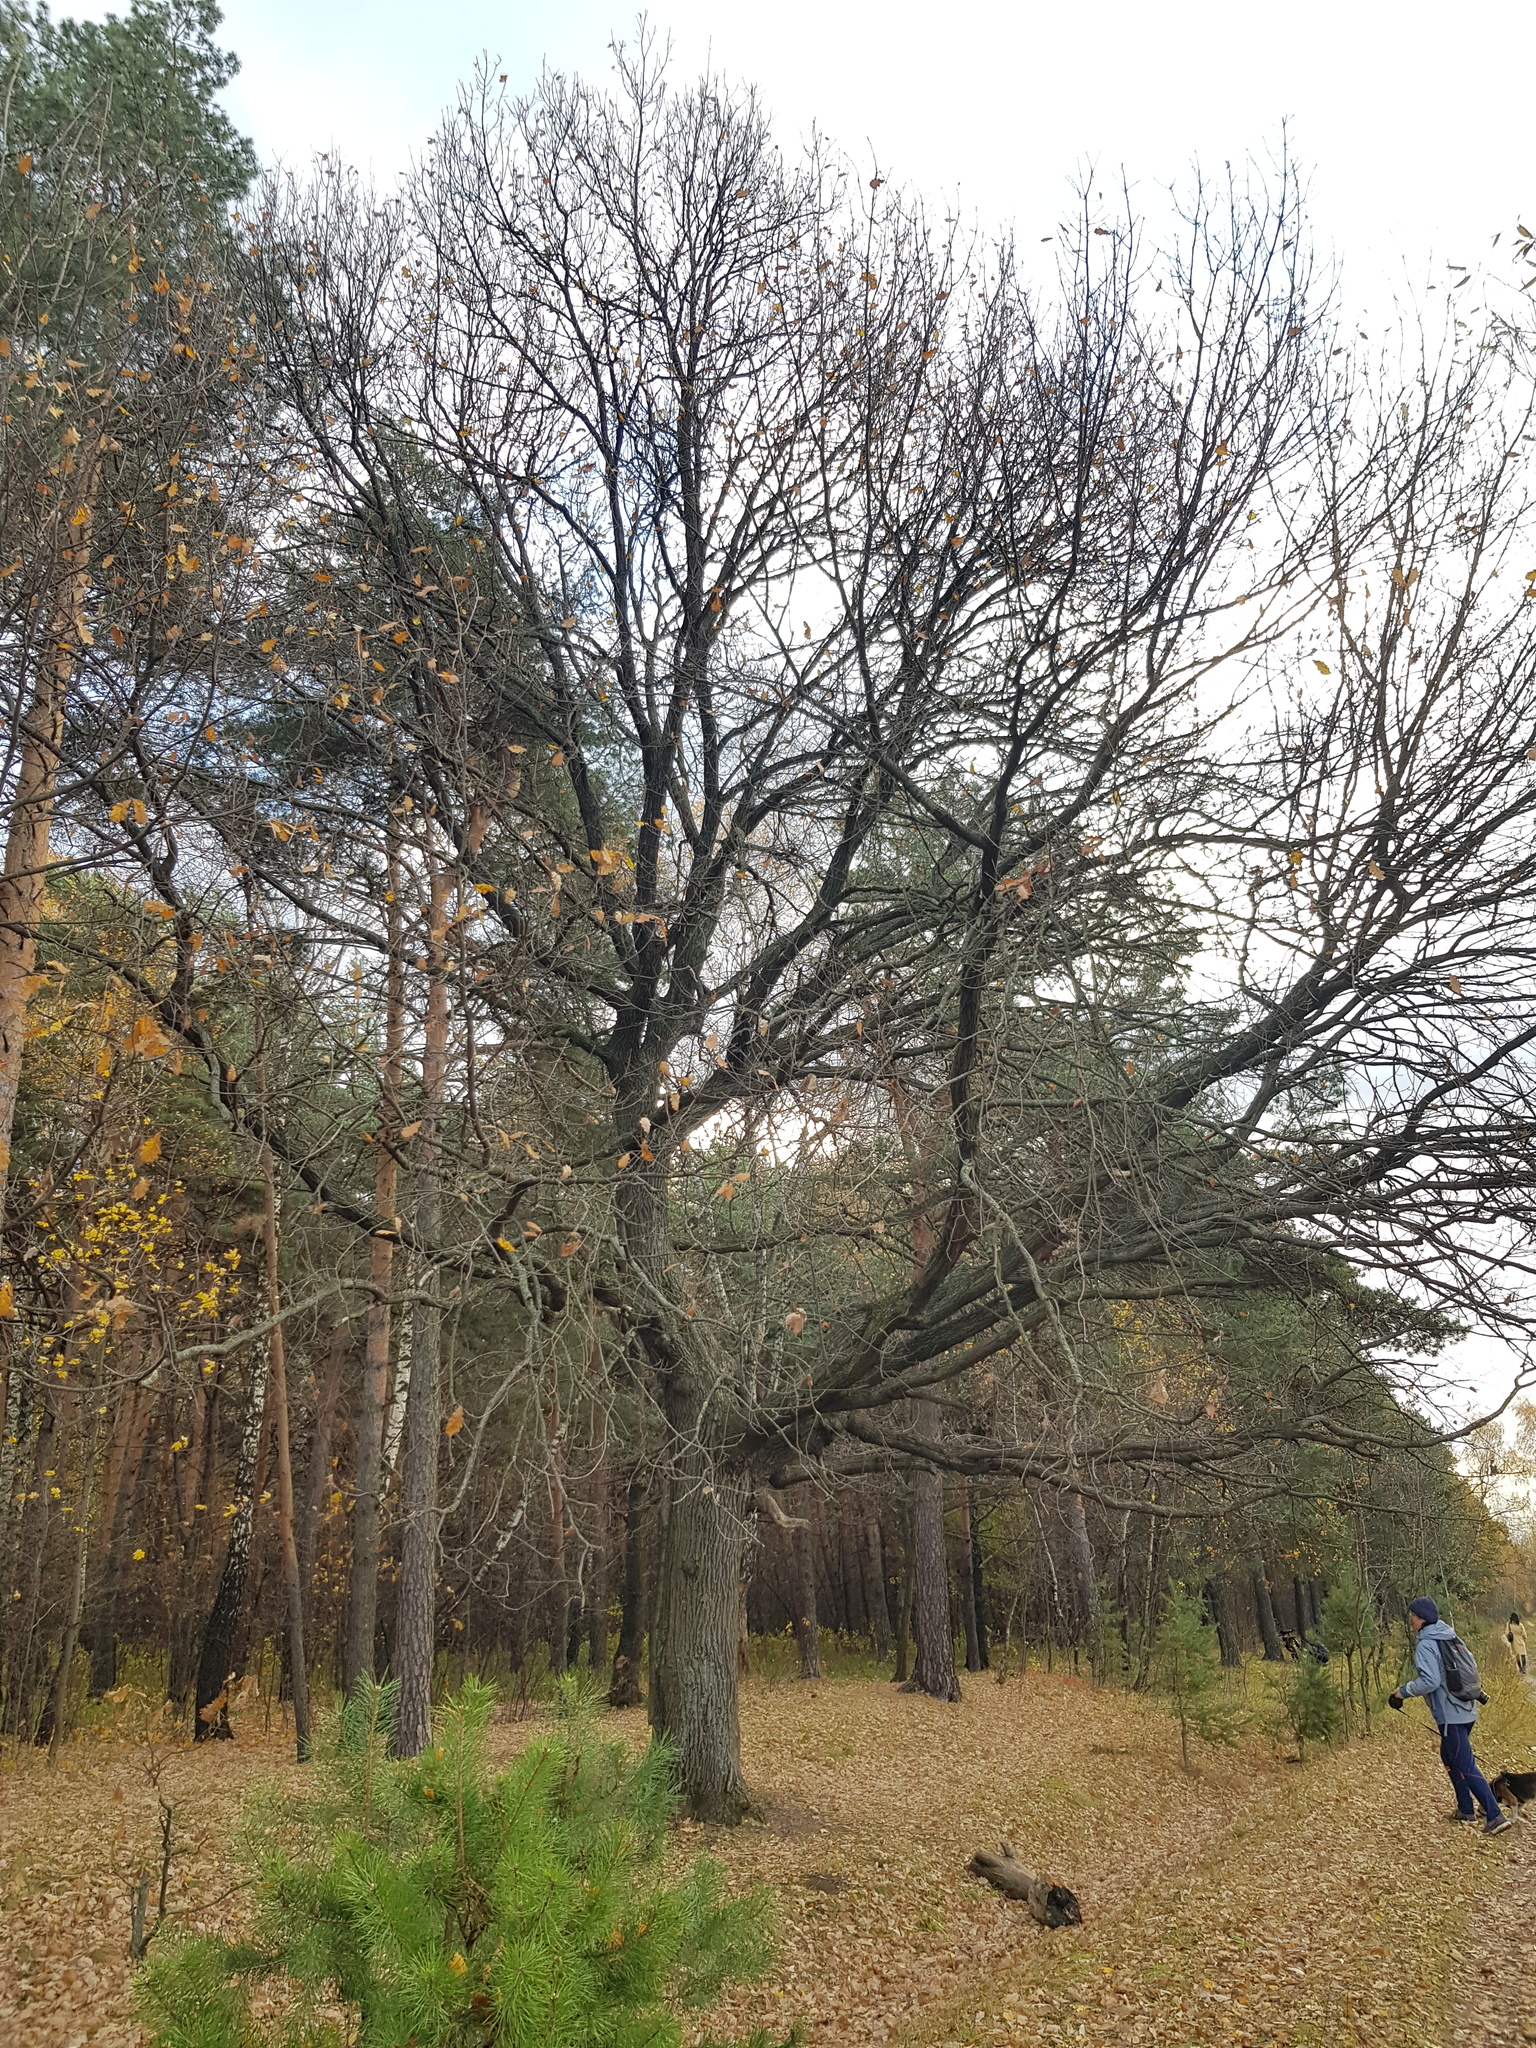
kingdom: Plantae
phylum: Tracheophyta
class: Magnoliopsida
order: Fagales
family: Fagaceae
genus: Quercus
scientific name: Quercus robur
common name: Pedunculate oak
